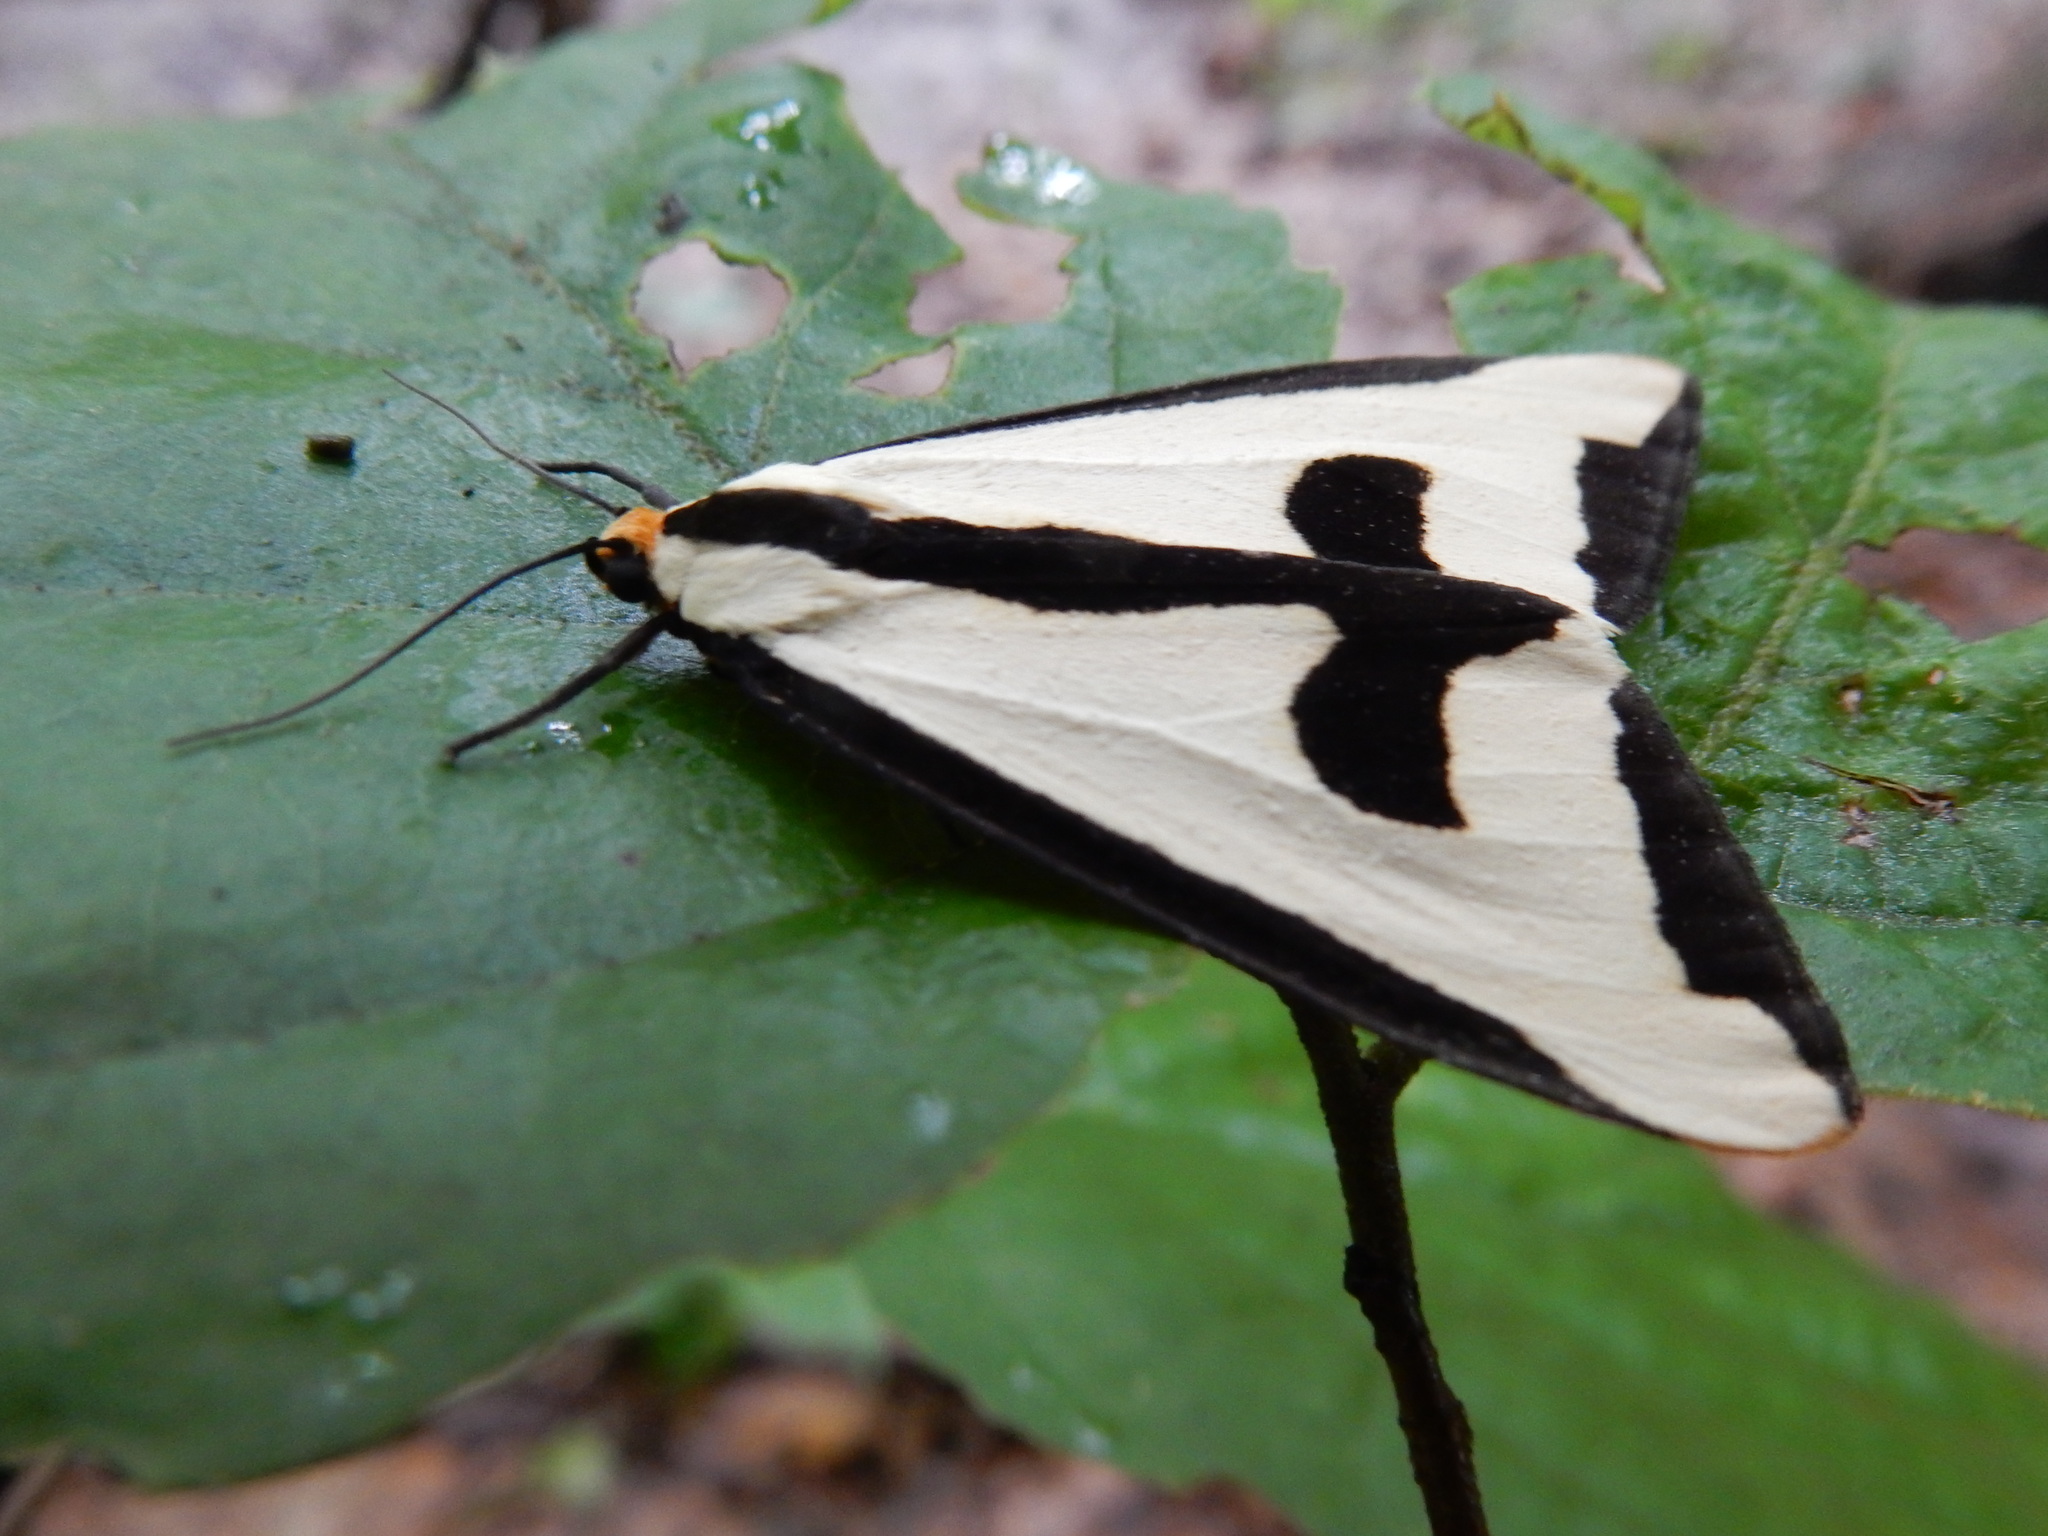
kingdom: Animalia
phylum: Arthropoda
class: Insecta
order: Lepidoptera
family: Erebidae
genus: Haploa
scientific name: Haploa clymene
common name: Clymene moth
